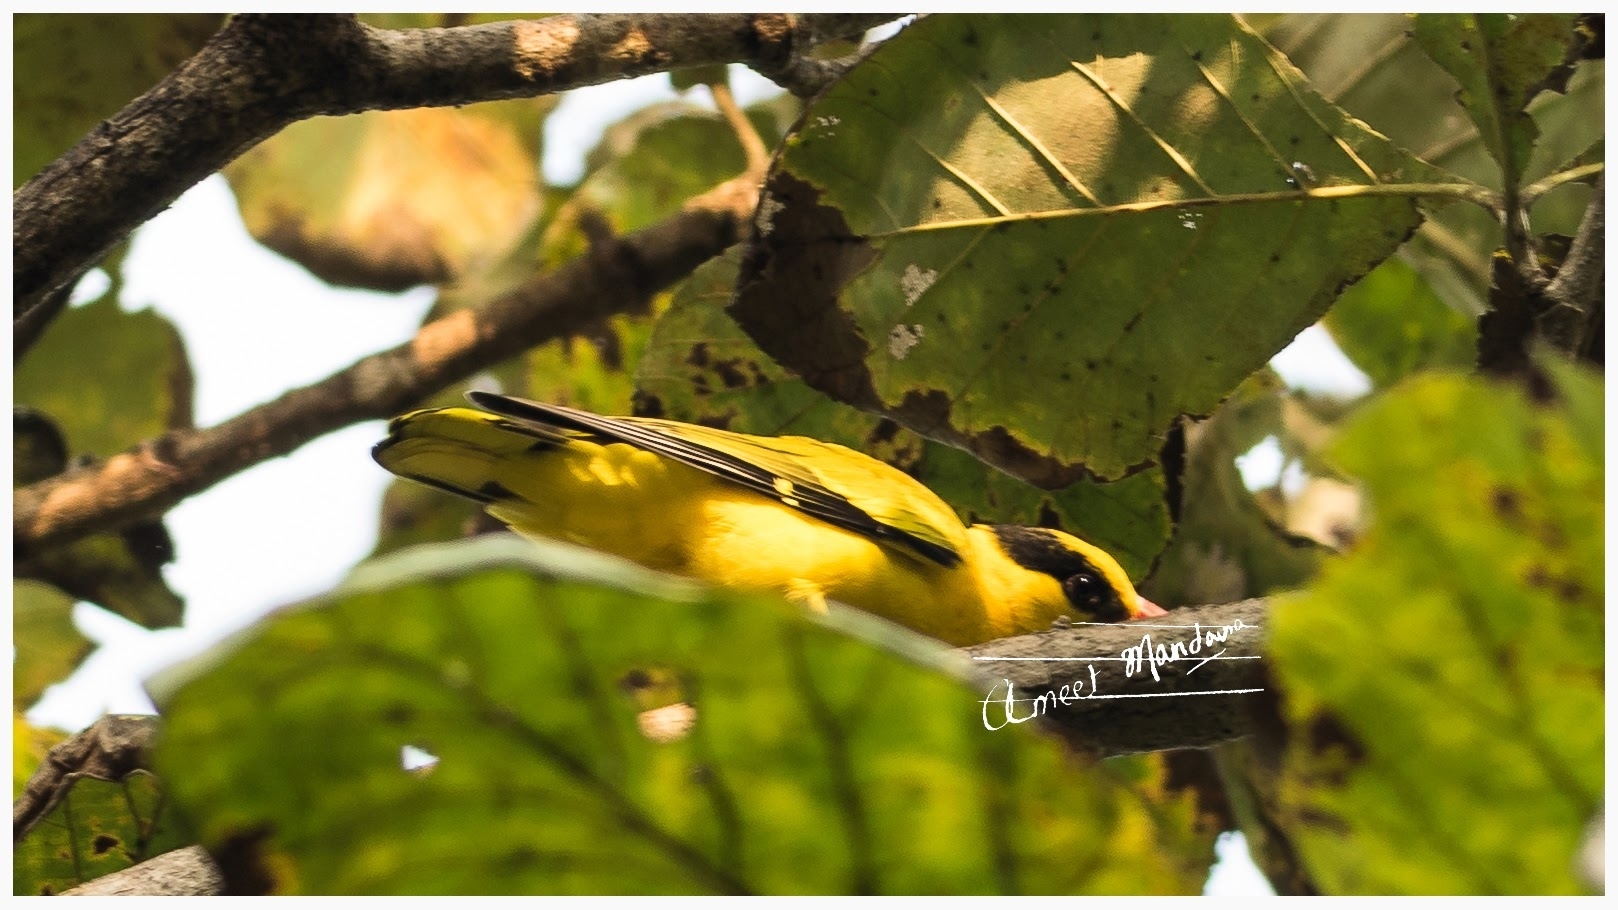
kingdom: Animalia
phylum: Chordata
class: Aves
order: Passeriformes
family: Oriolidae
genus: Oriolus
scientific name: Oriolus chinensis
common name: Black-naped oriole
